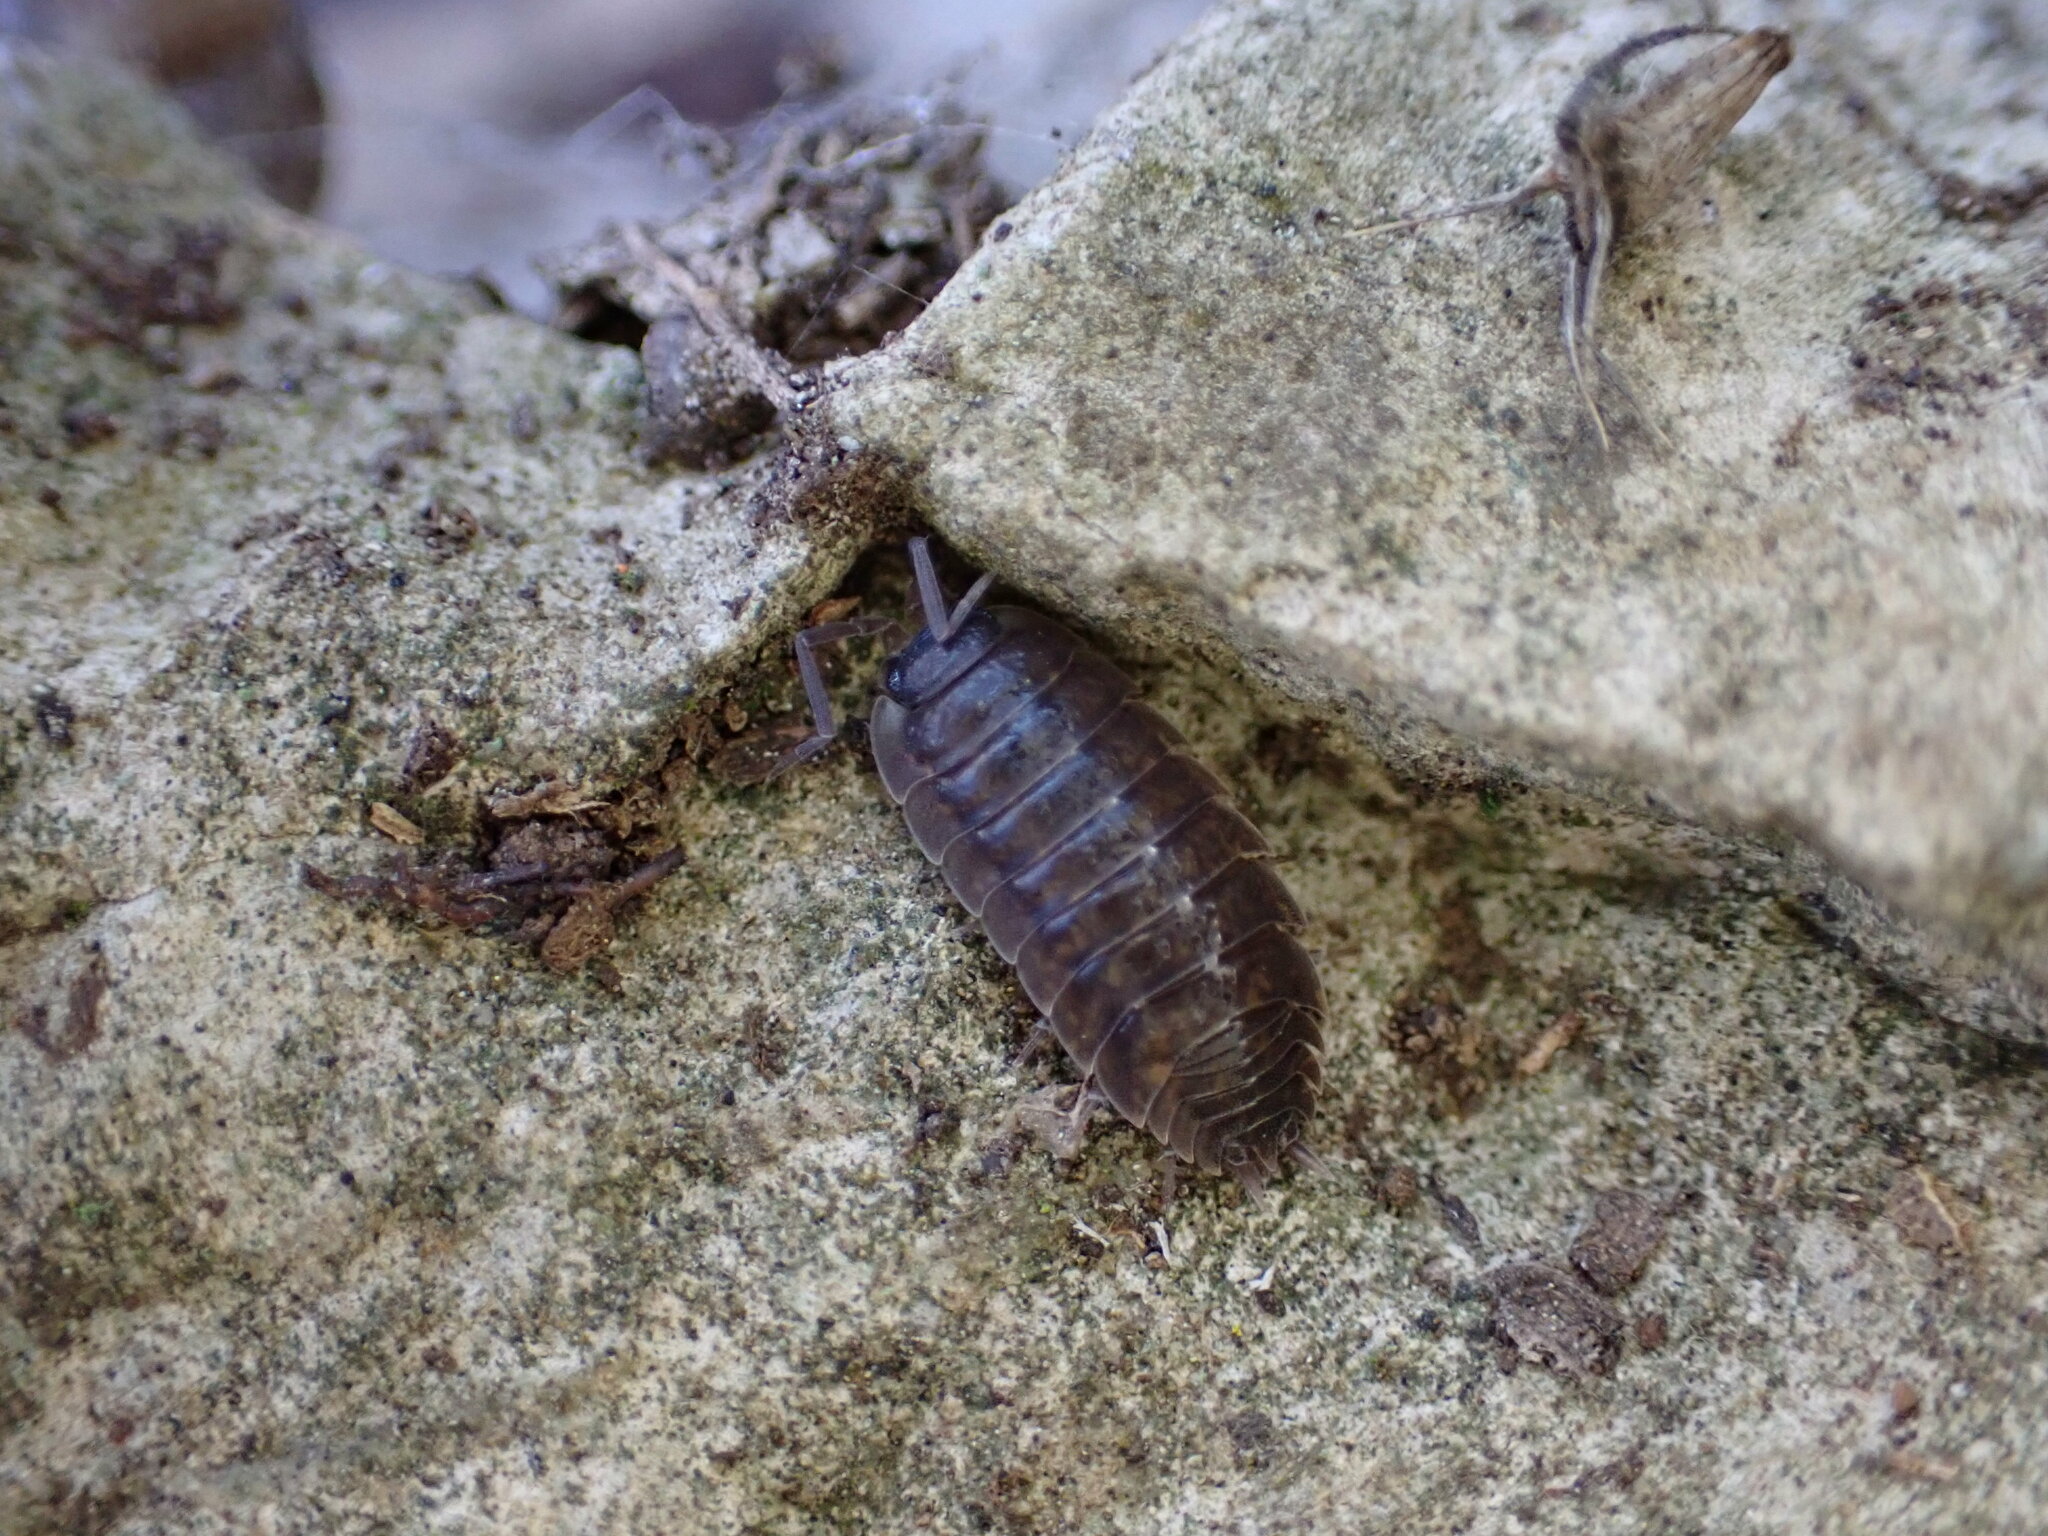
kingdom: Animalia
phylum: Arthropoda
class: Malacostraca
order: Isopoda
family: Porcellionidae
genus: Porcellio
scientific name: Porcellio orarum
